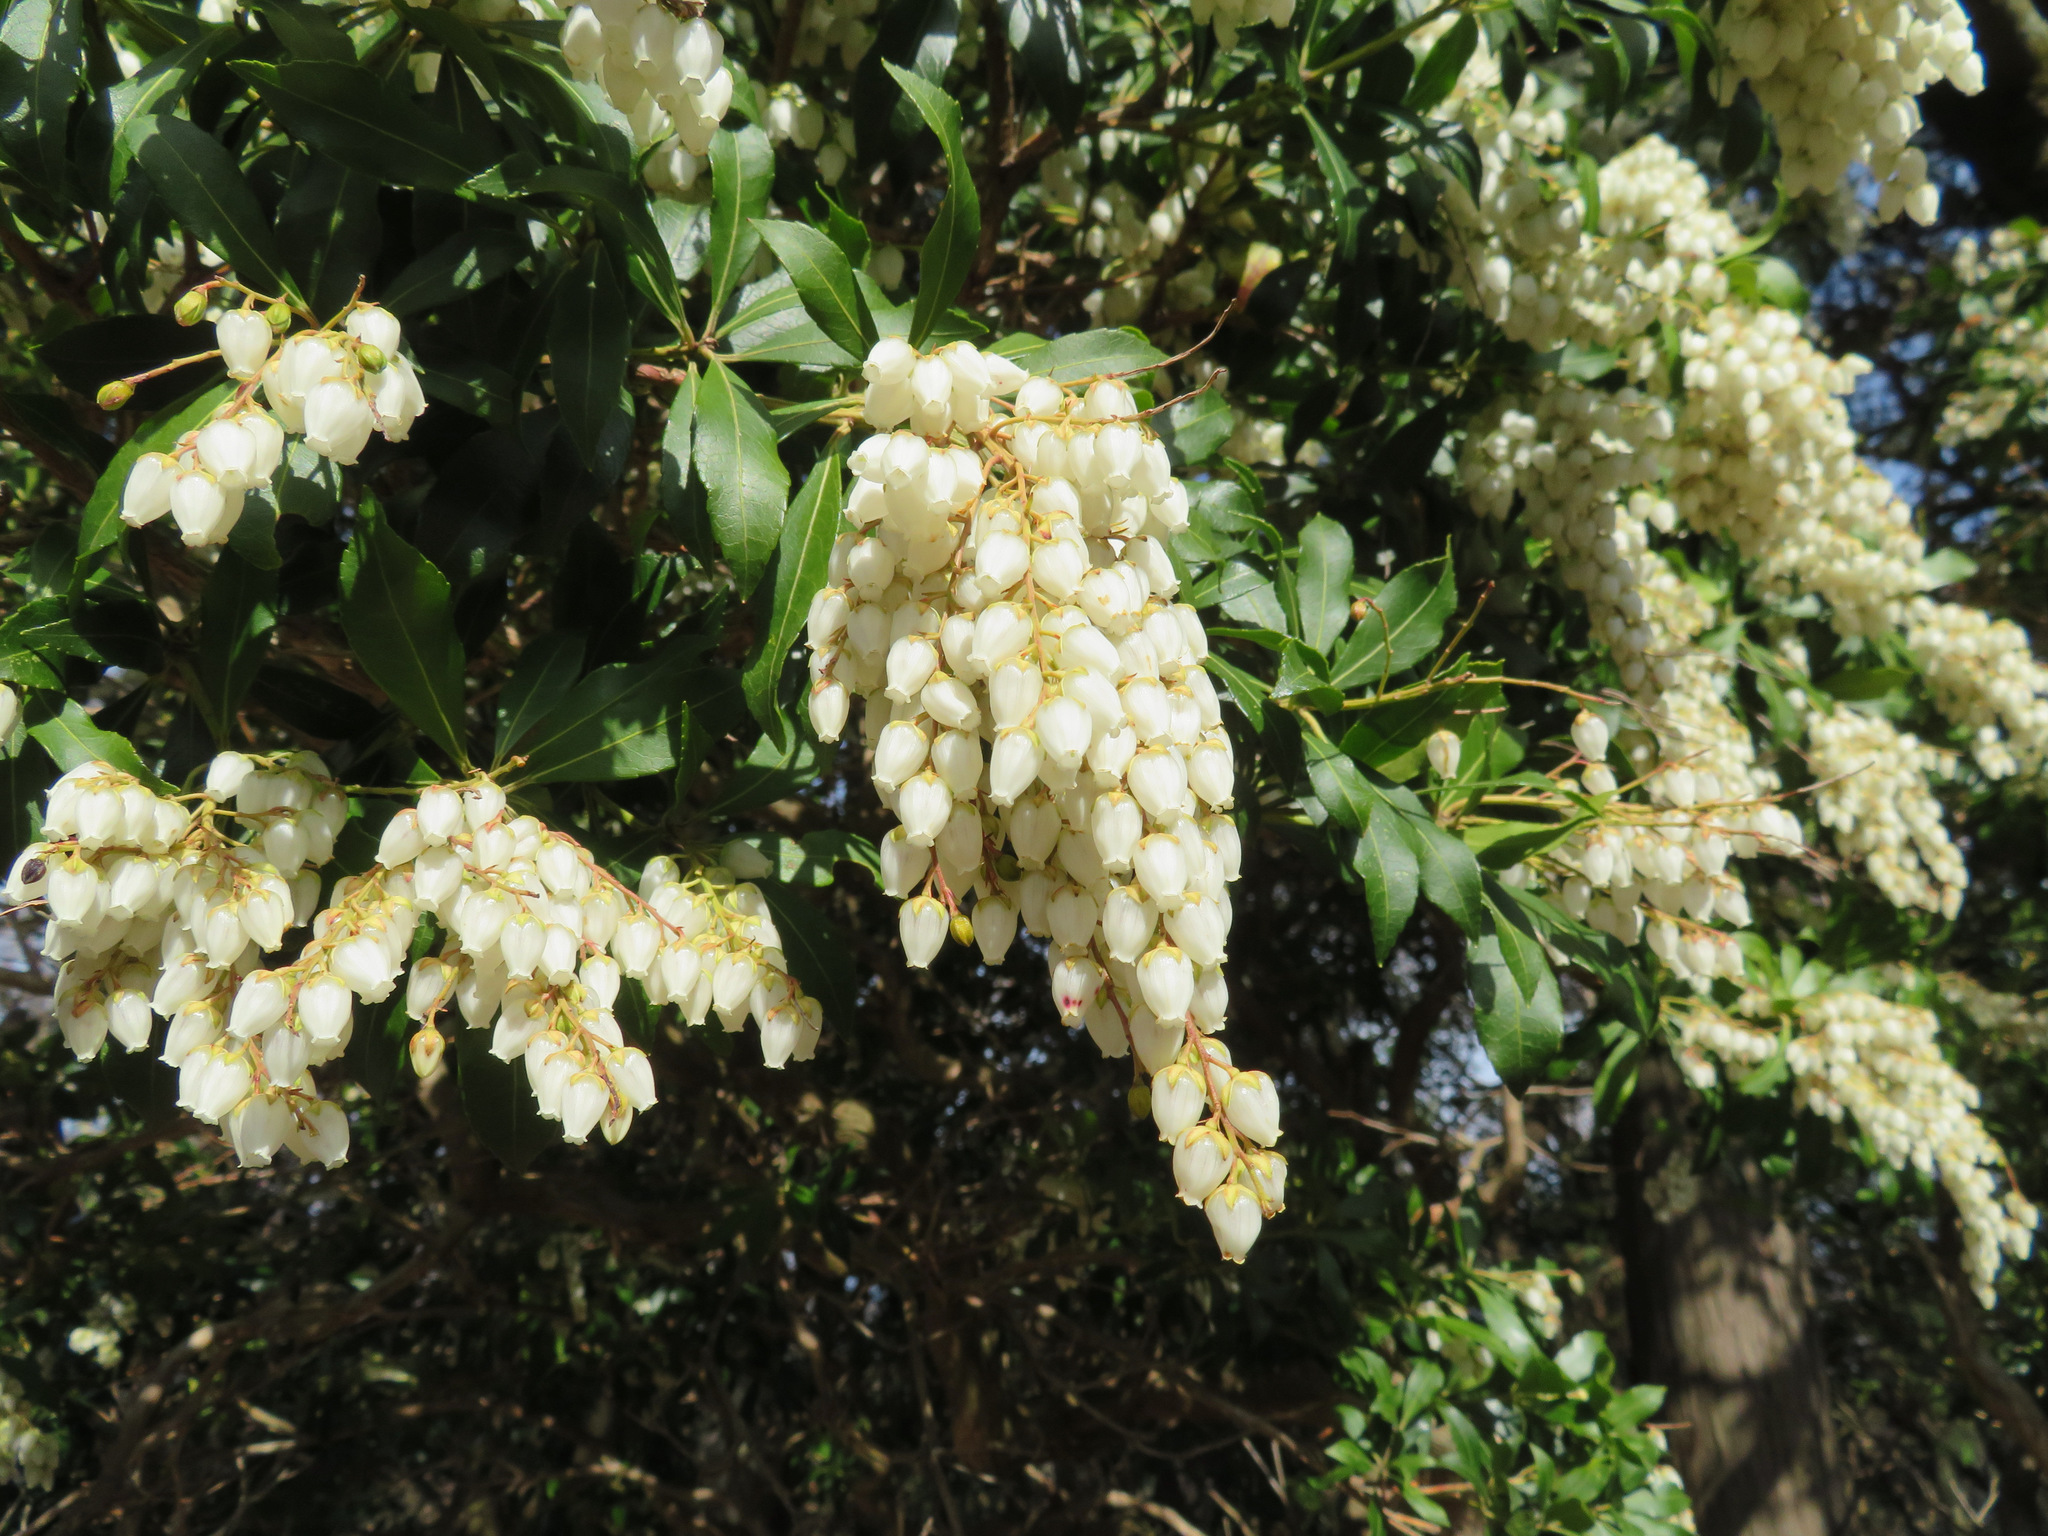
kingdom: Plantae
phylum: Tracheophyta
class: Magnoliopsida
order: Ericales
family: Ericaceae
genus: Pieris
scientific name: Pieris japonica
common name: Japanese pieris
